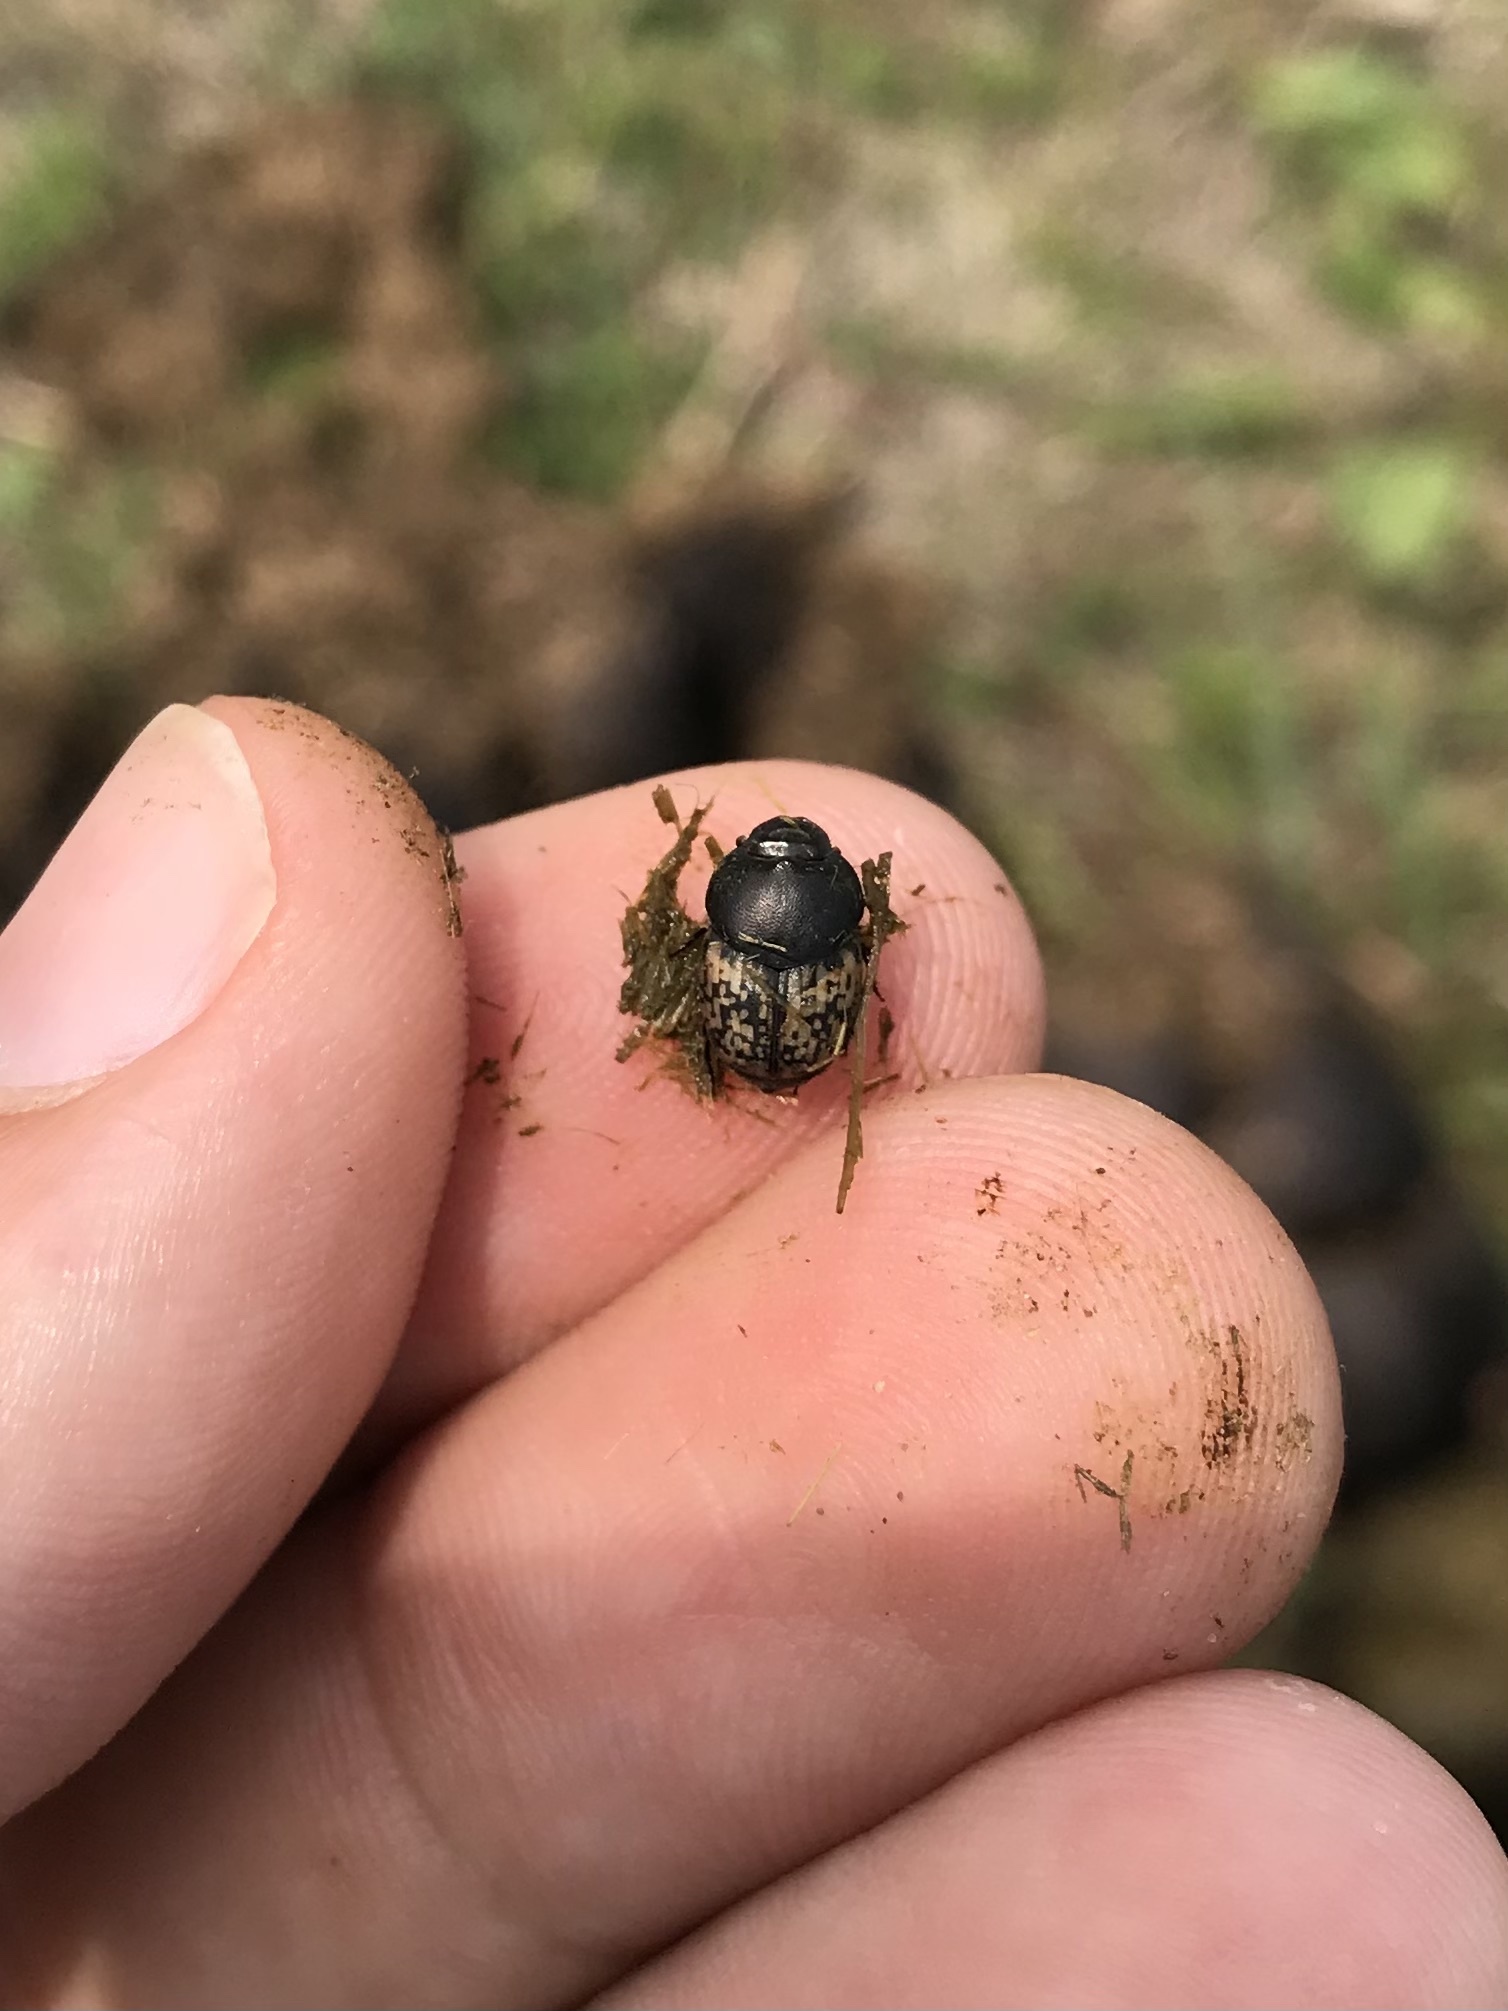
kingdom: Animalia
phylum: Arthropoda
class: Insecta
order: Coleoptera
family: Scarabaeidae
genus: Onthophagus
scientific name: Onthophagus nuchicornis
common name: Mottled dung beetle
